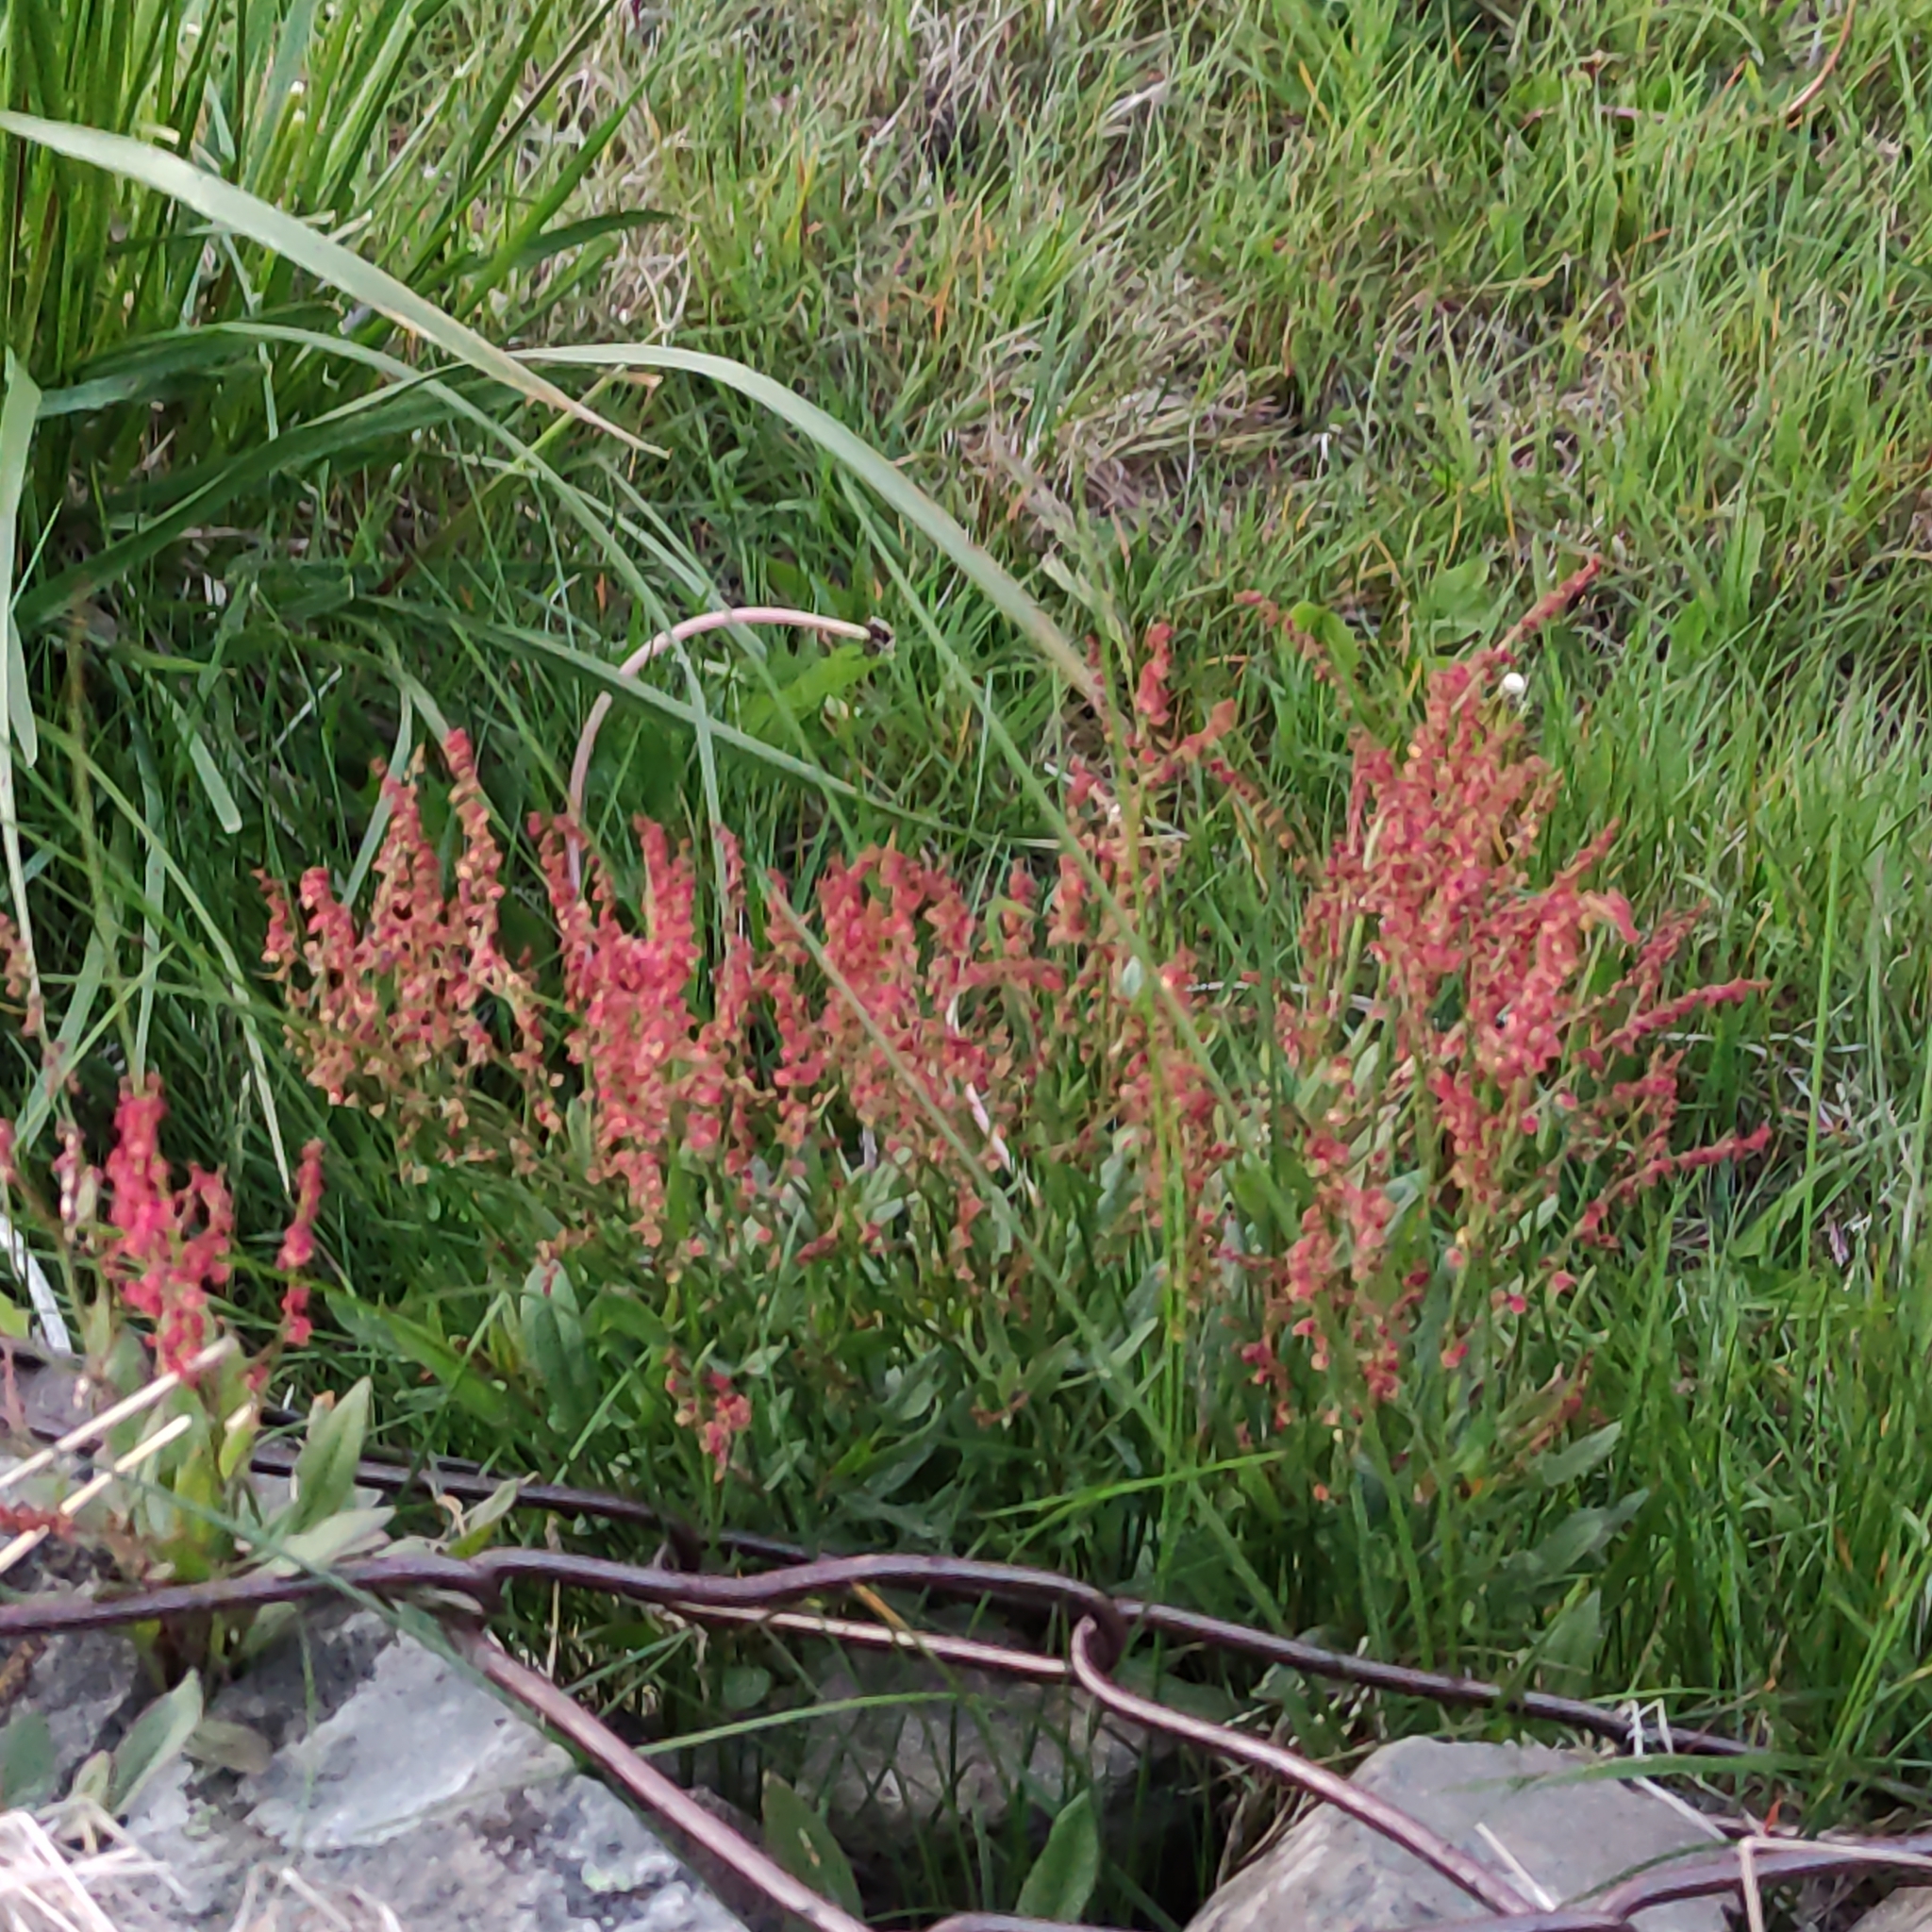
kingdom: Plantae
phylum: Tracheophyta
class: Magnoliopsida
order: Caryophyllales
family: Polygonaceae
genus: Rumex
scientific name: Rumex acetosella
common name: Common sheep sorrel
